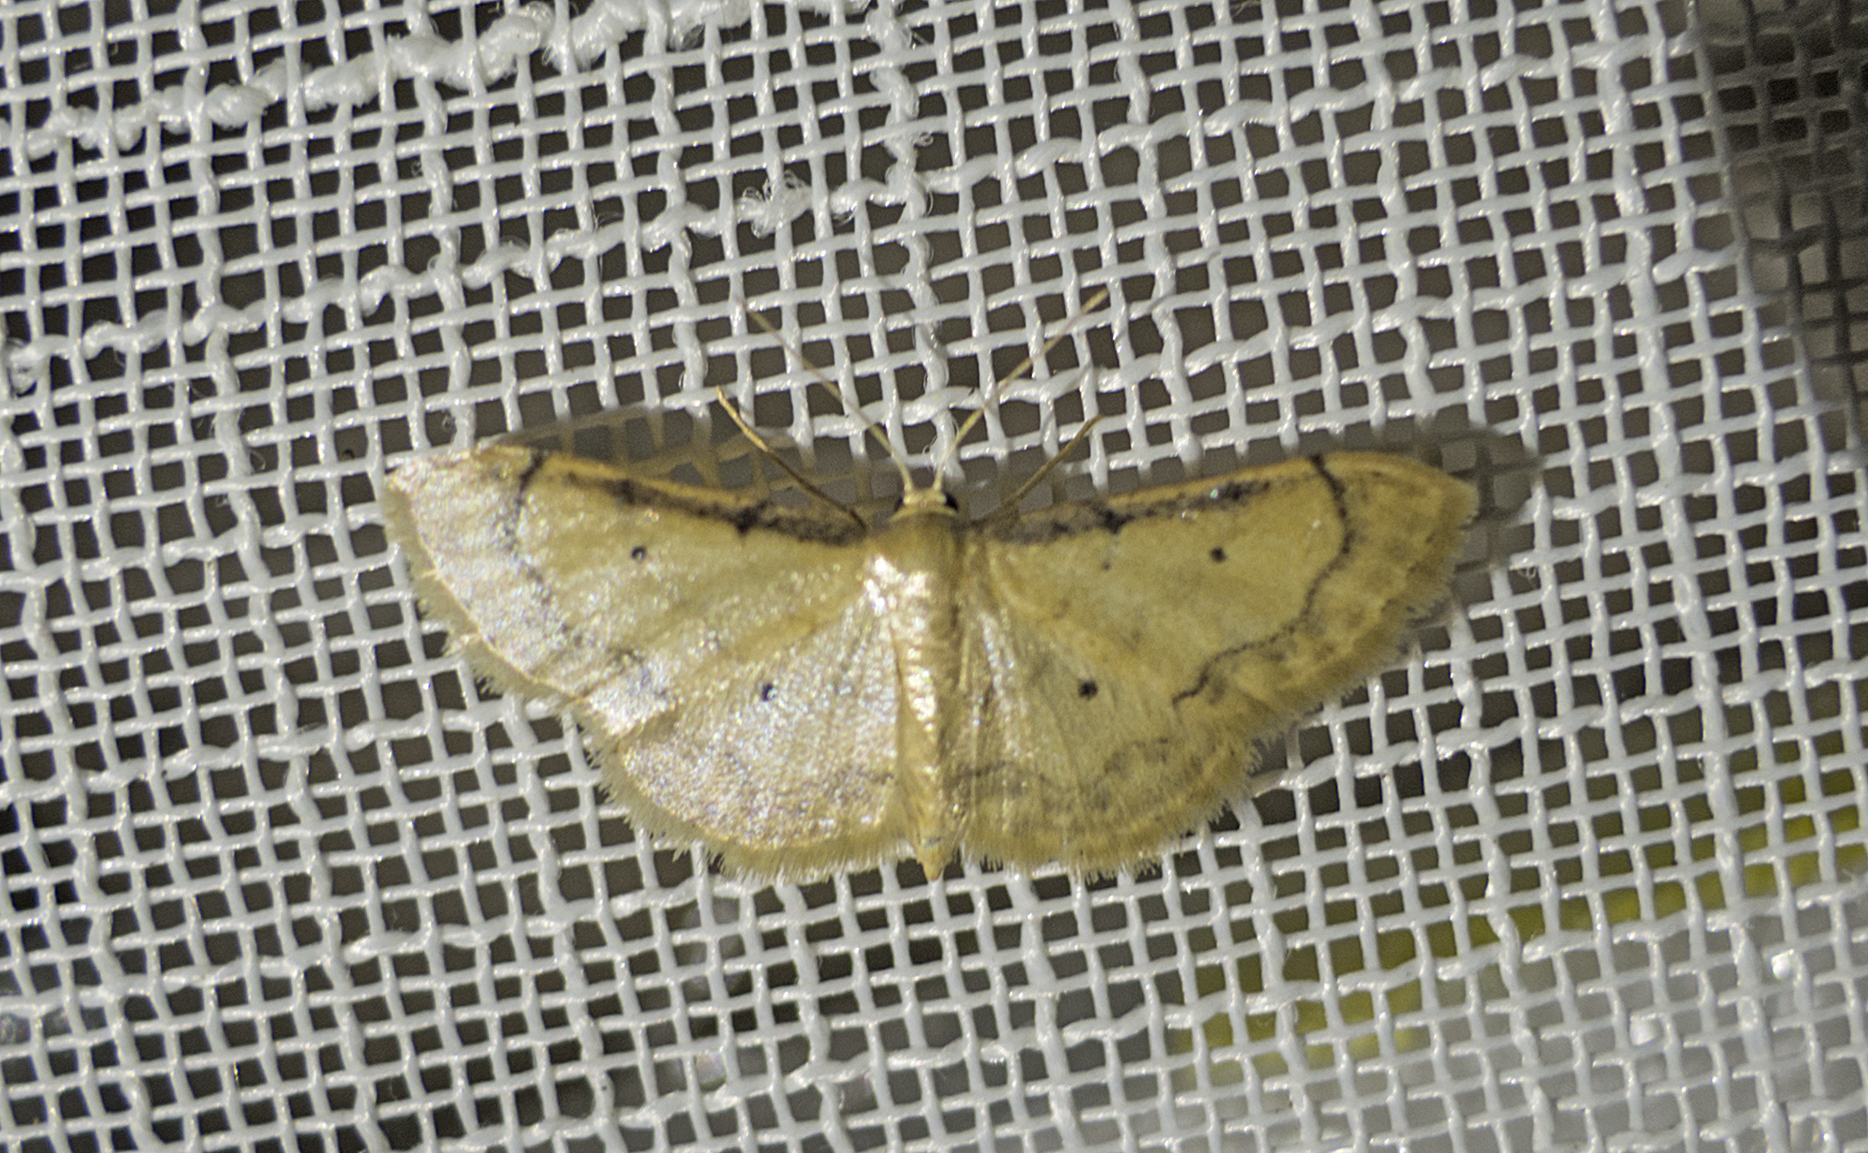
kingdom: Animalia
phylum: Arthropoda
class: Insecta
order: Lepidoptera
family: Geometridae
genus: Idaea
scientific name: Idaea politaria
